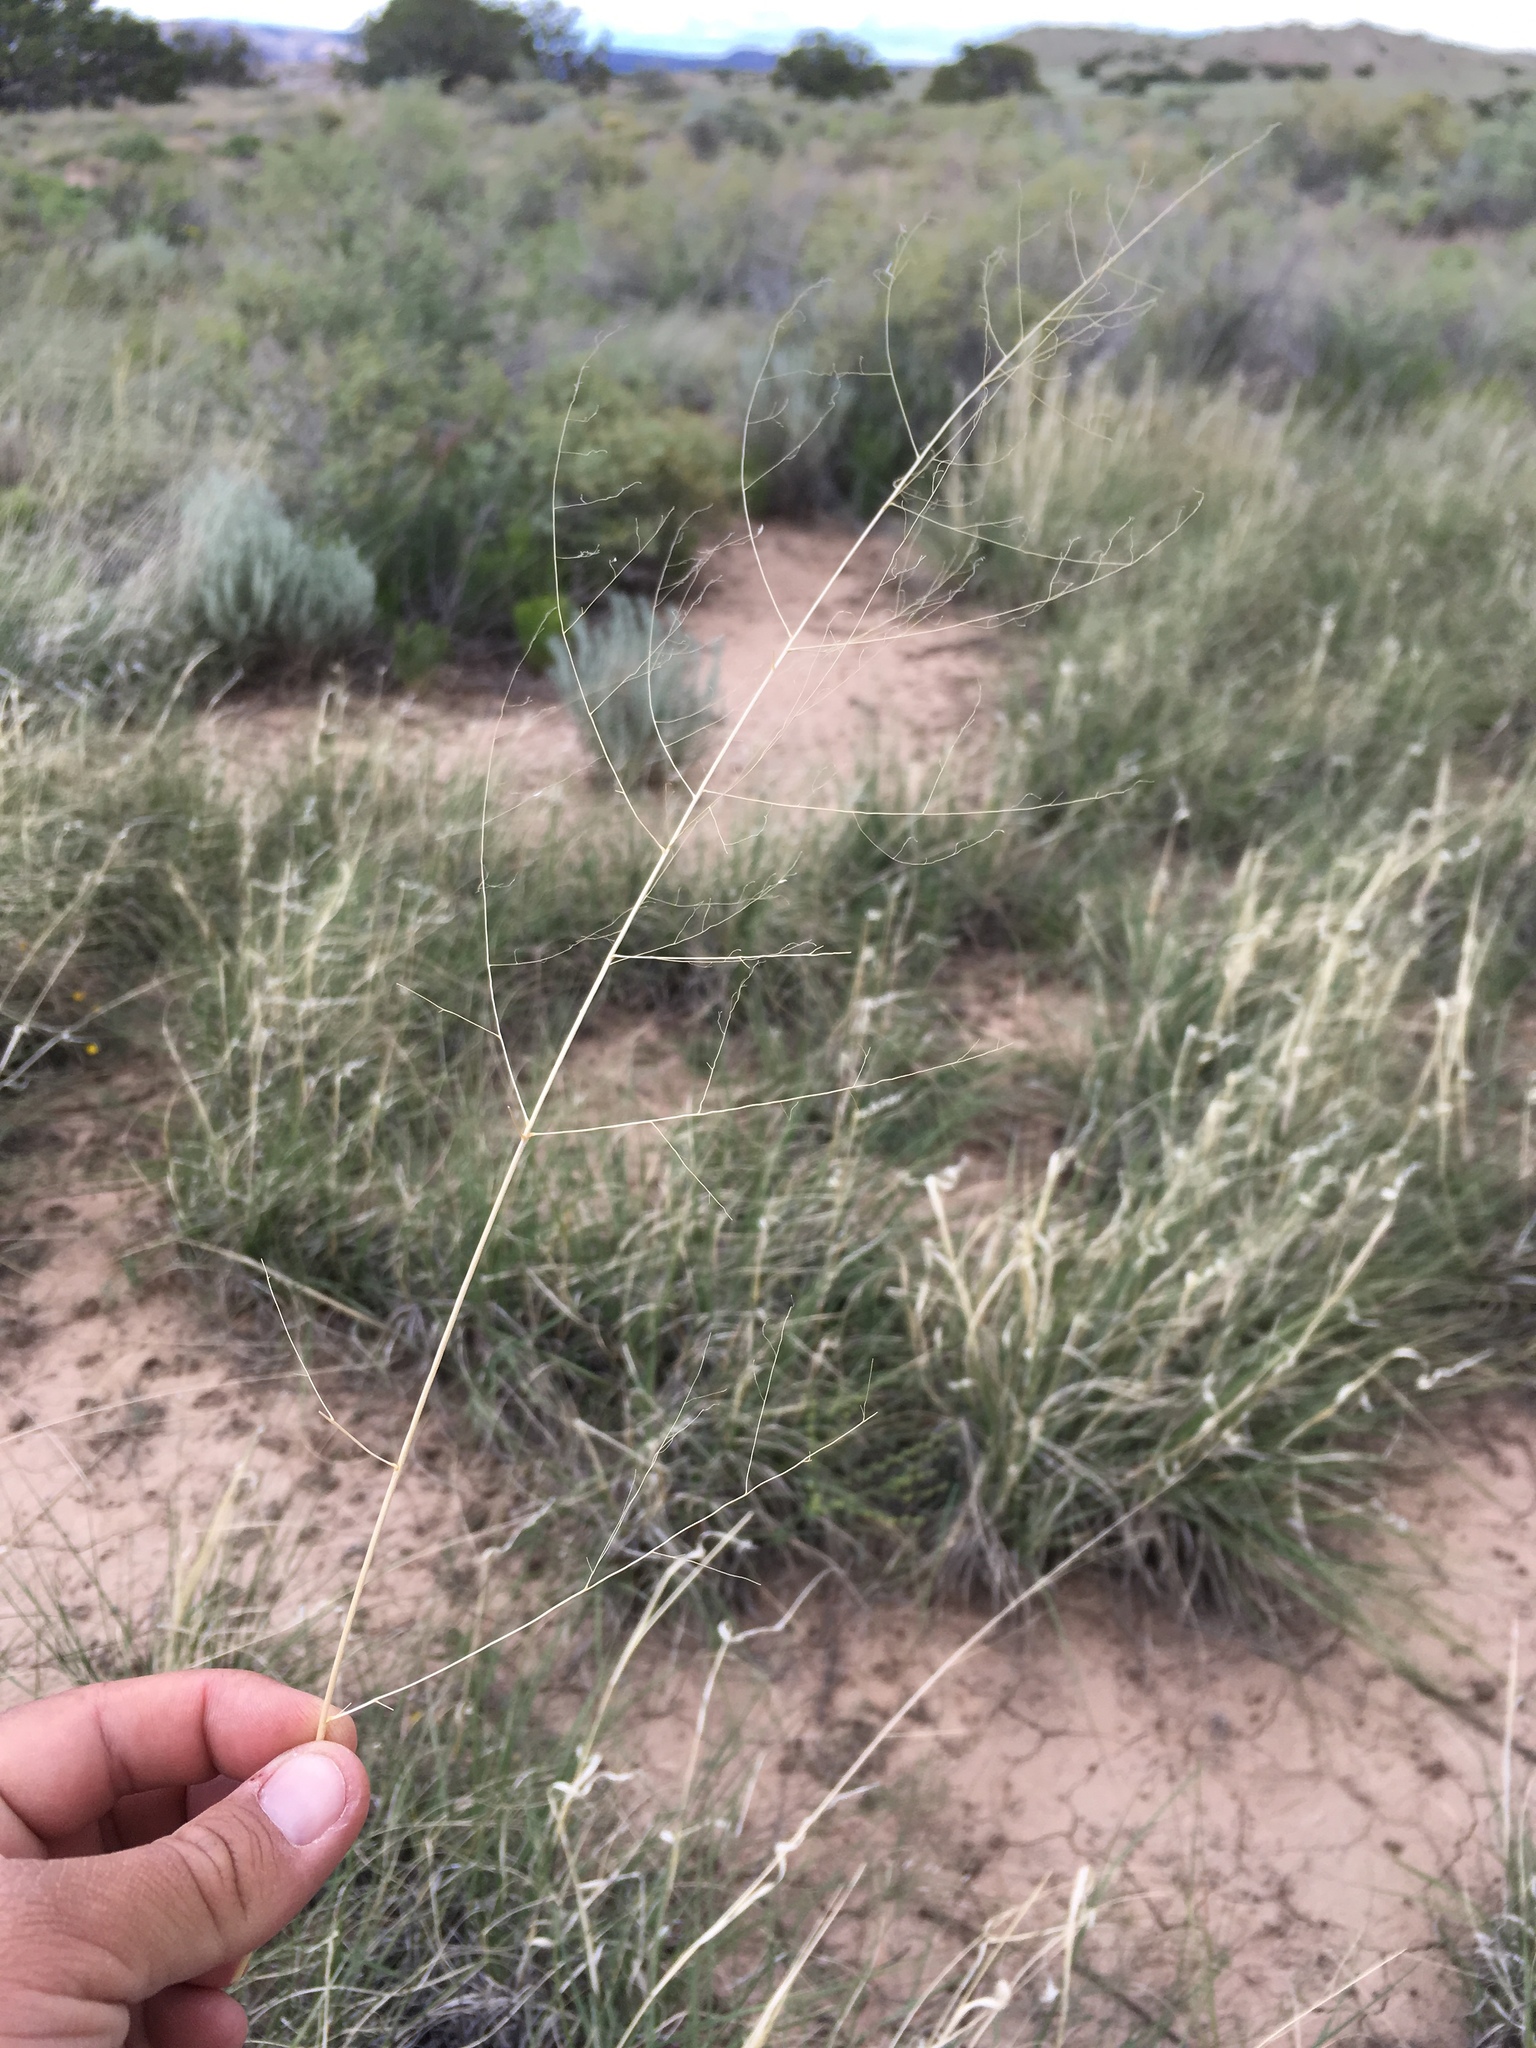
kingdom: Plantae
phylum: Tracheophyta
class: Liliopsida
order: Poales
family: Poaceae
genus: Sporobolus
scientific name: Sporobolus airoides
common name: Alkali sacaton
